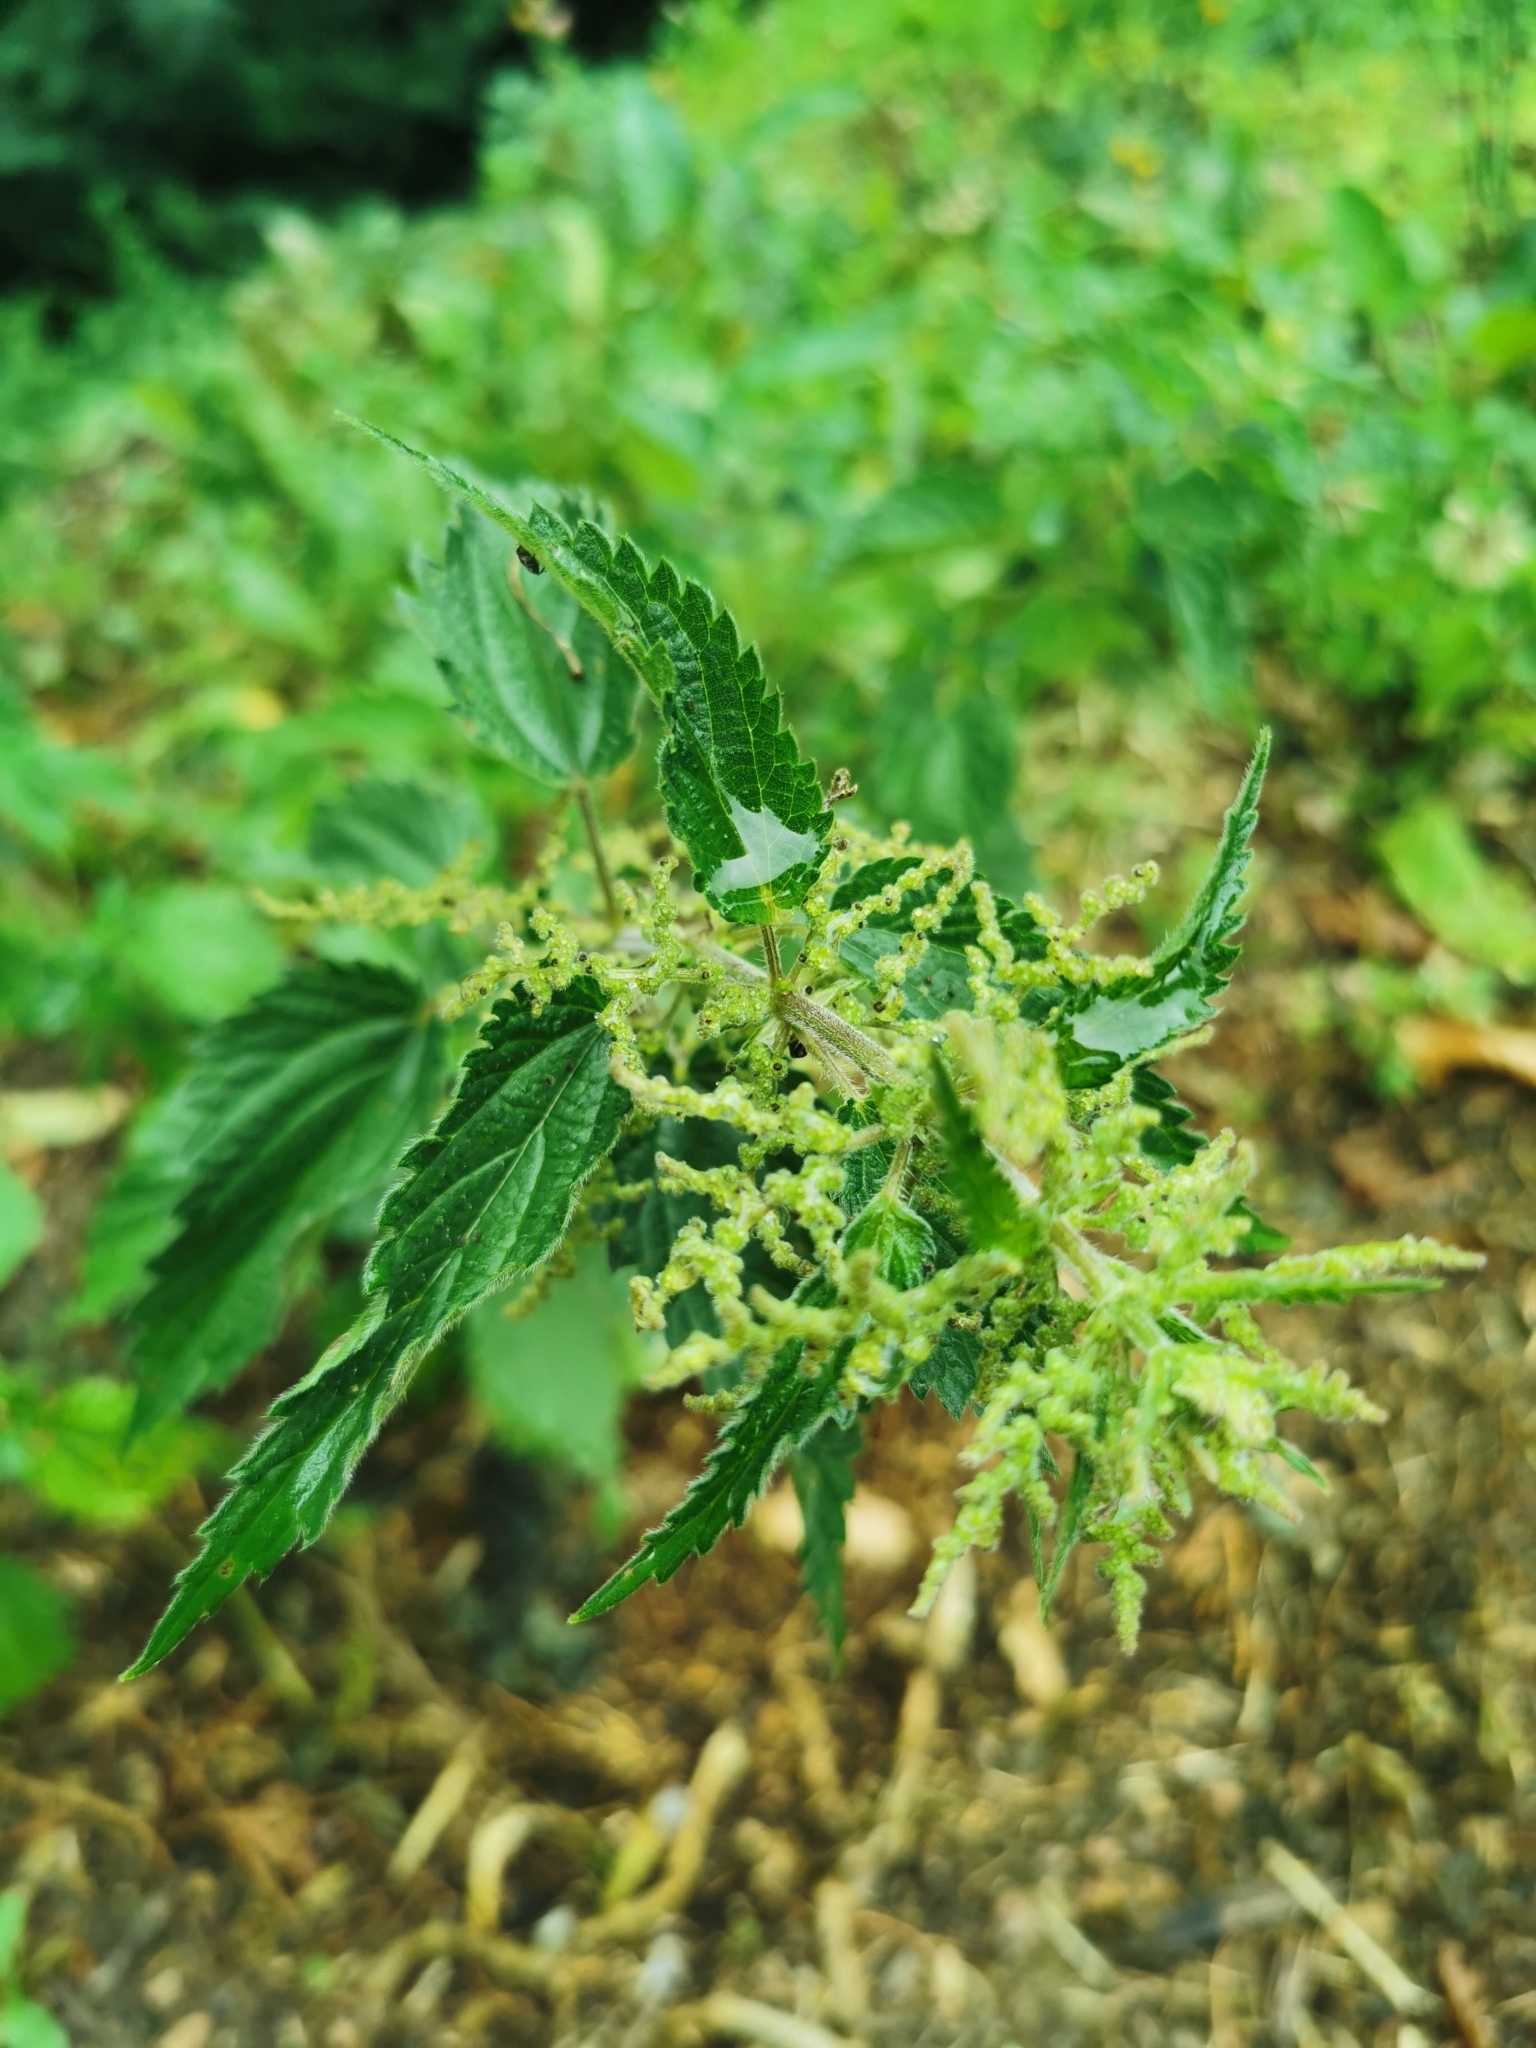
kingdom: Plantae
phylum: Tracheophyta
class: Magnoliopsida
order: Rosales
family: Urticaceae
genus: Urtica
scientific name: Urtica dioica
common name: Common nettle
